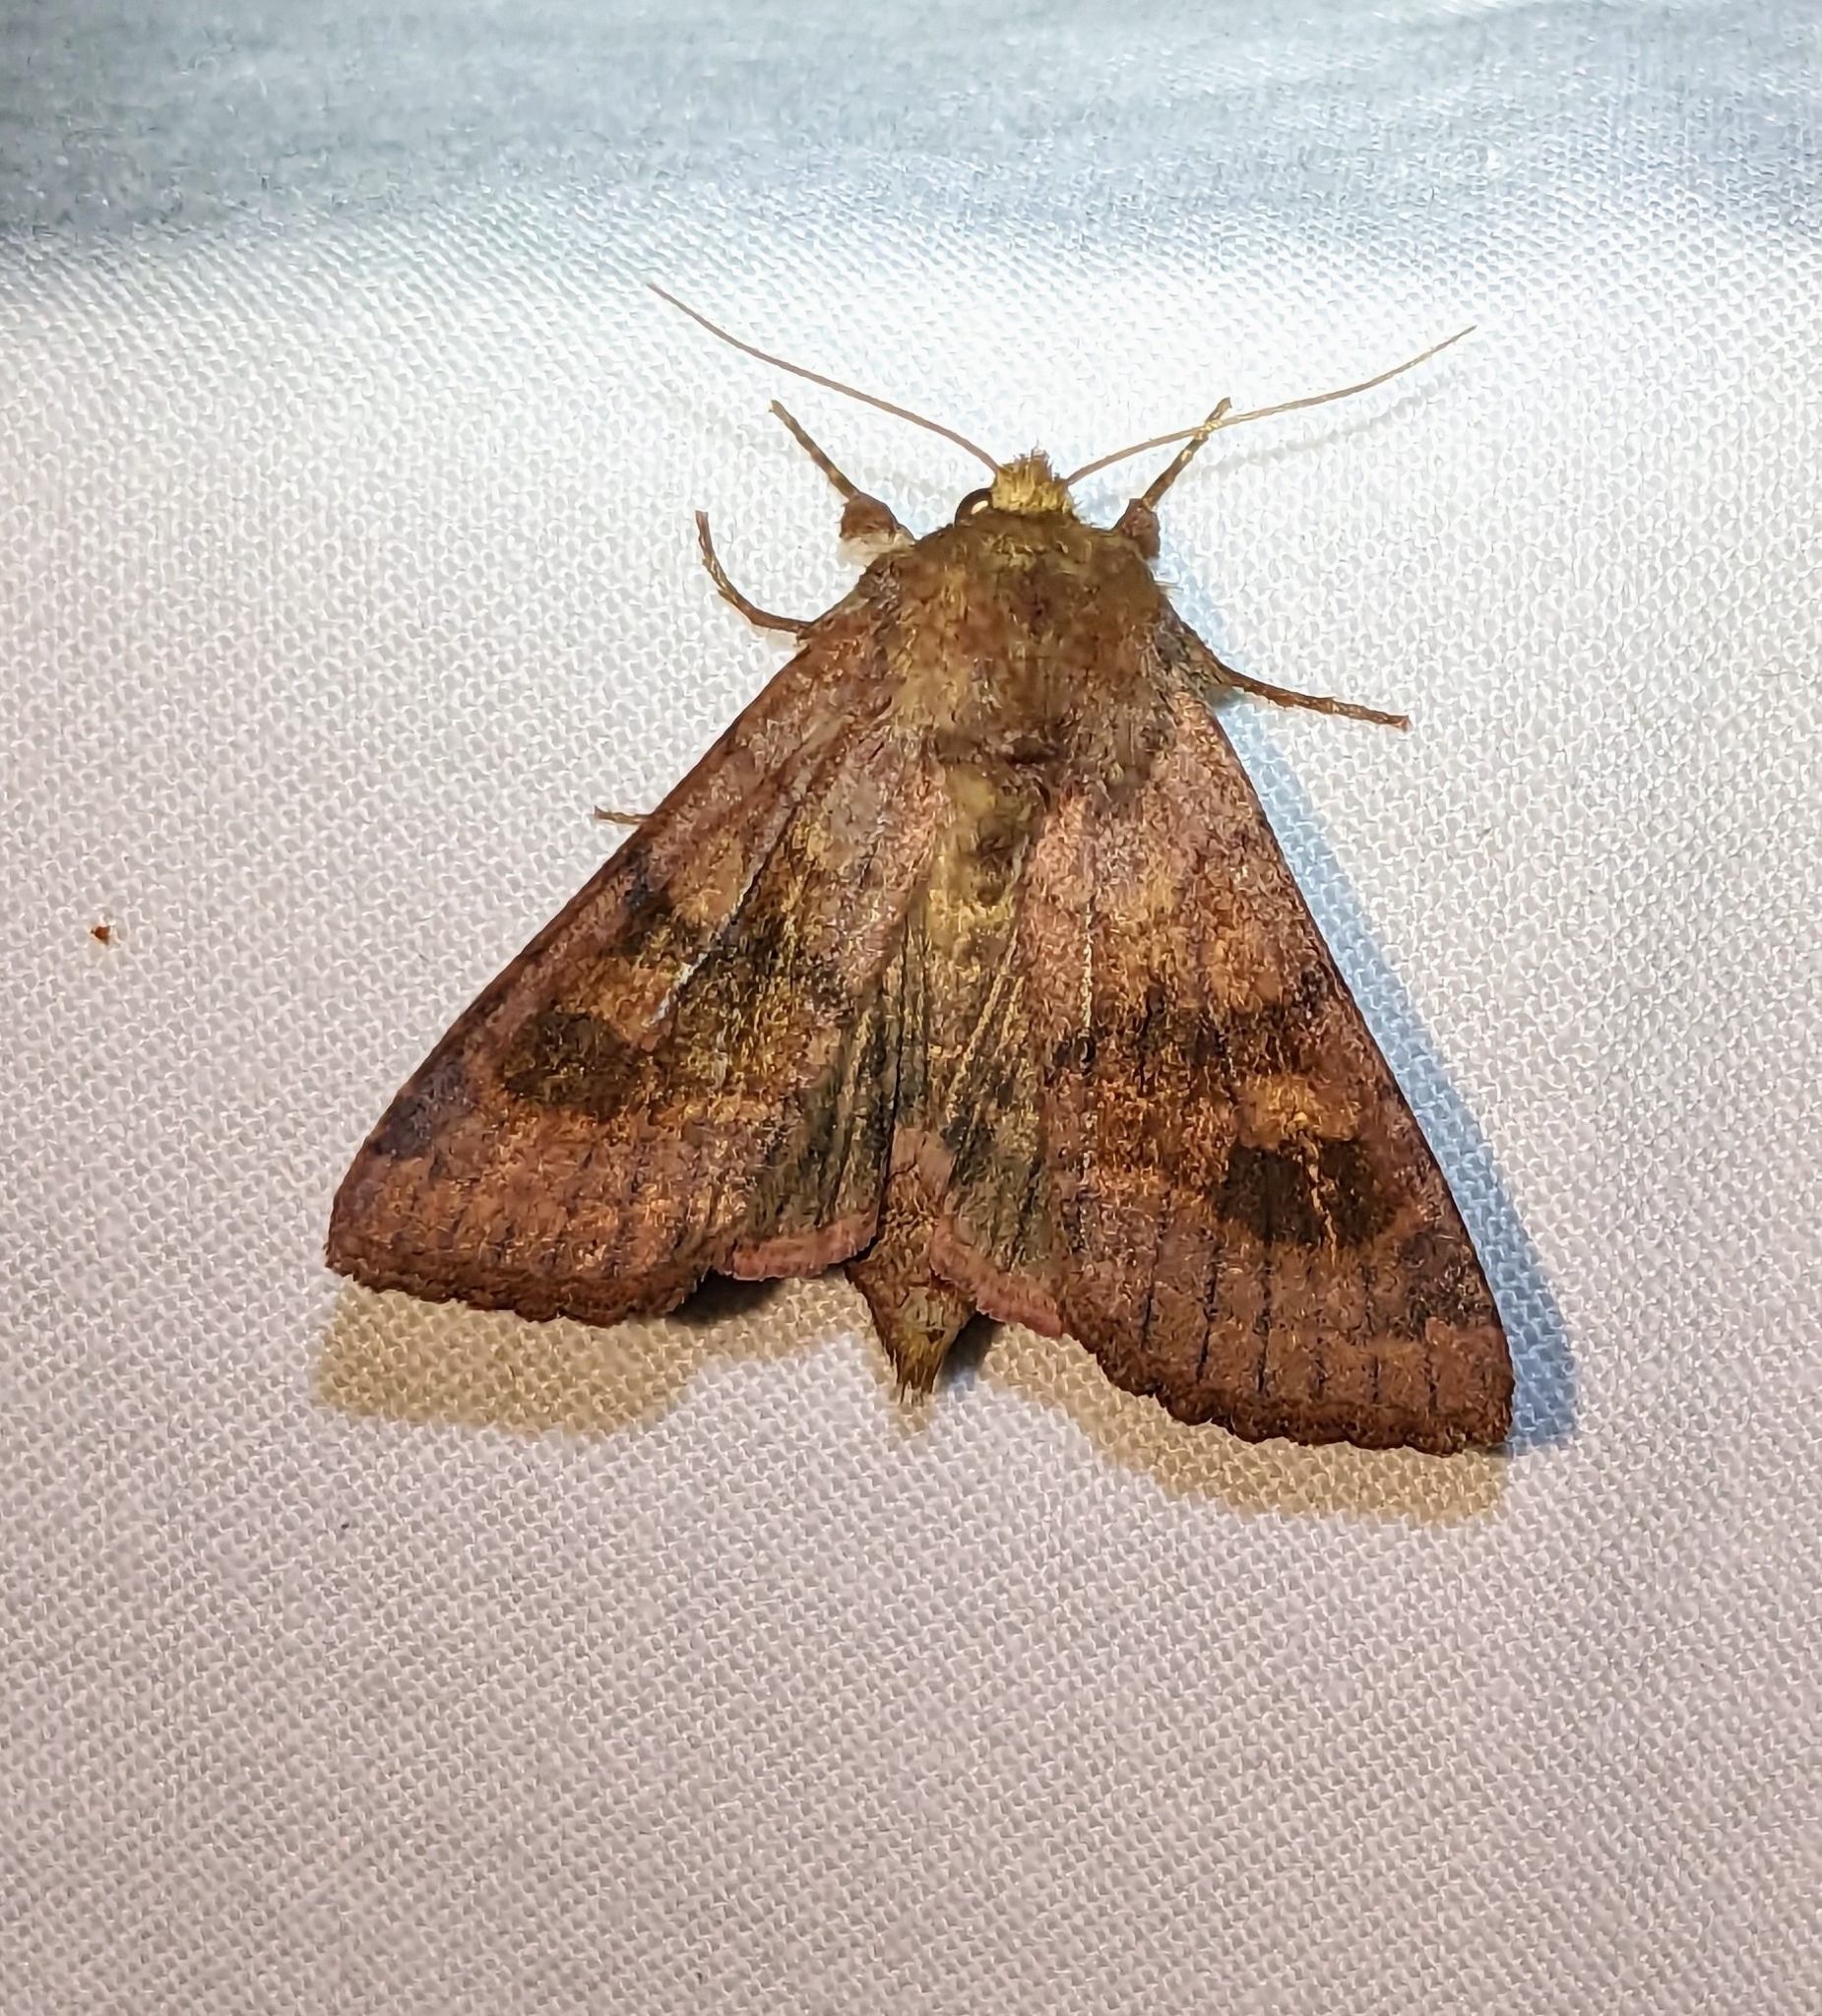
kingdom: Animalia
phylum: Arthropoda
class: Insecta
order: Lepidoptera
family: Noctuidae
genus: Nephelodes
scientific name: Nephelodes minians
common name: Bronzed cutworm
